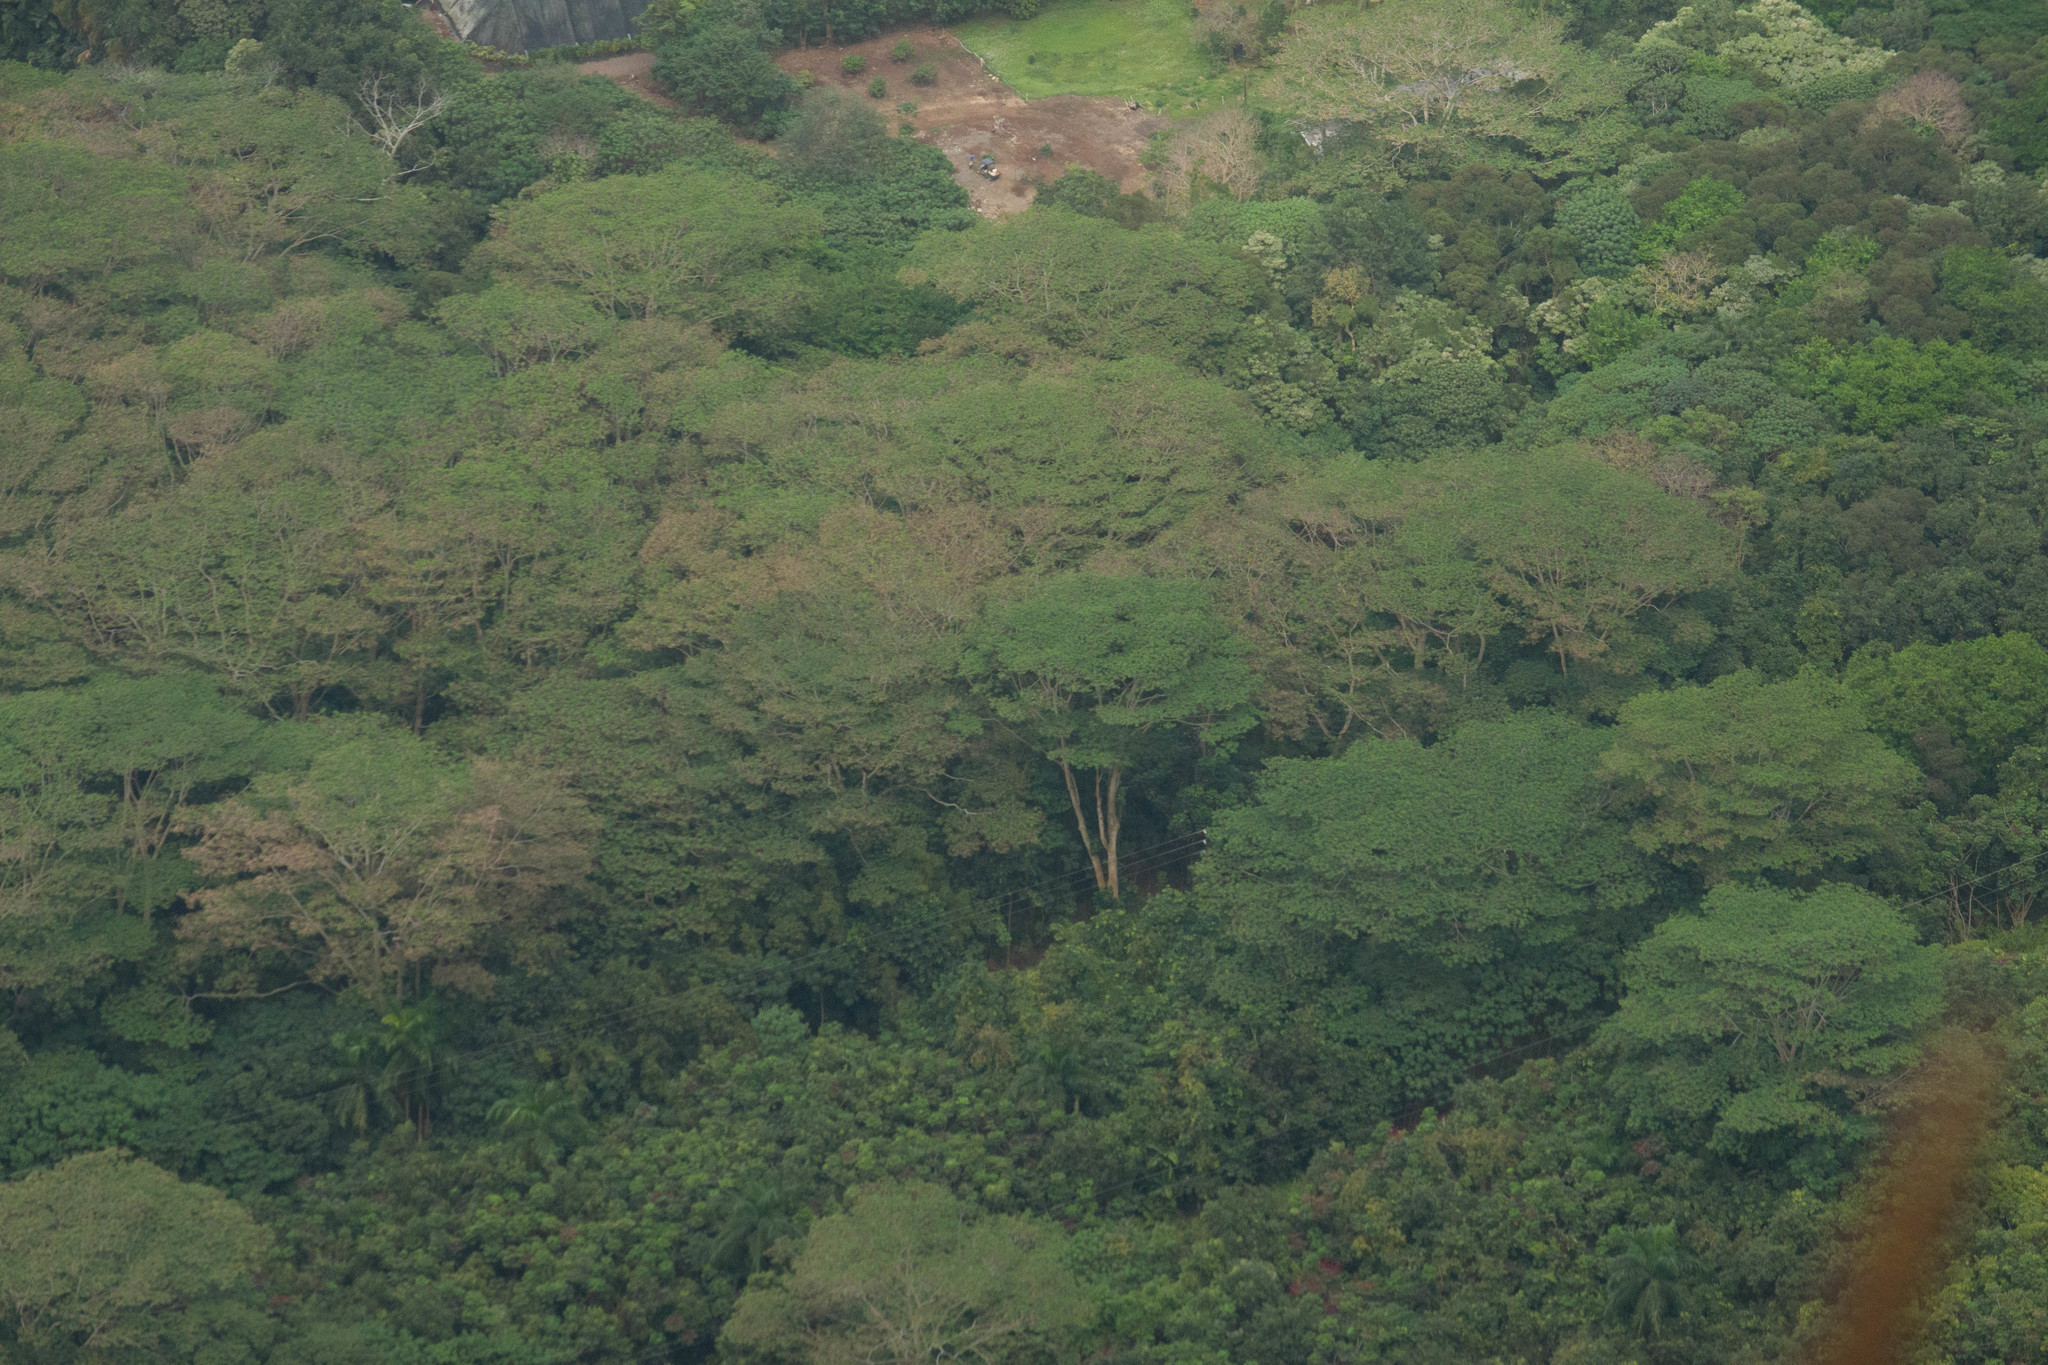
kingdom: Plantae
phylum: Tracheophyta
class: Magnoliopsida
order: Fabales
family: Fabaceae
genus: Falcataria
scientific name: Falcataria falcata
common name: Moluccan albizia
